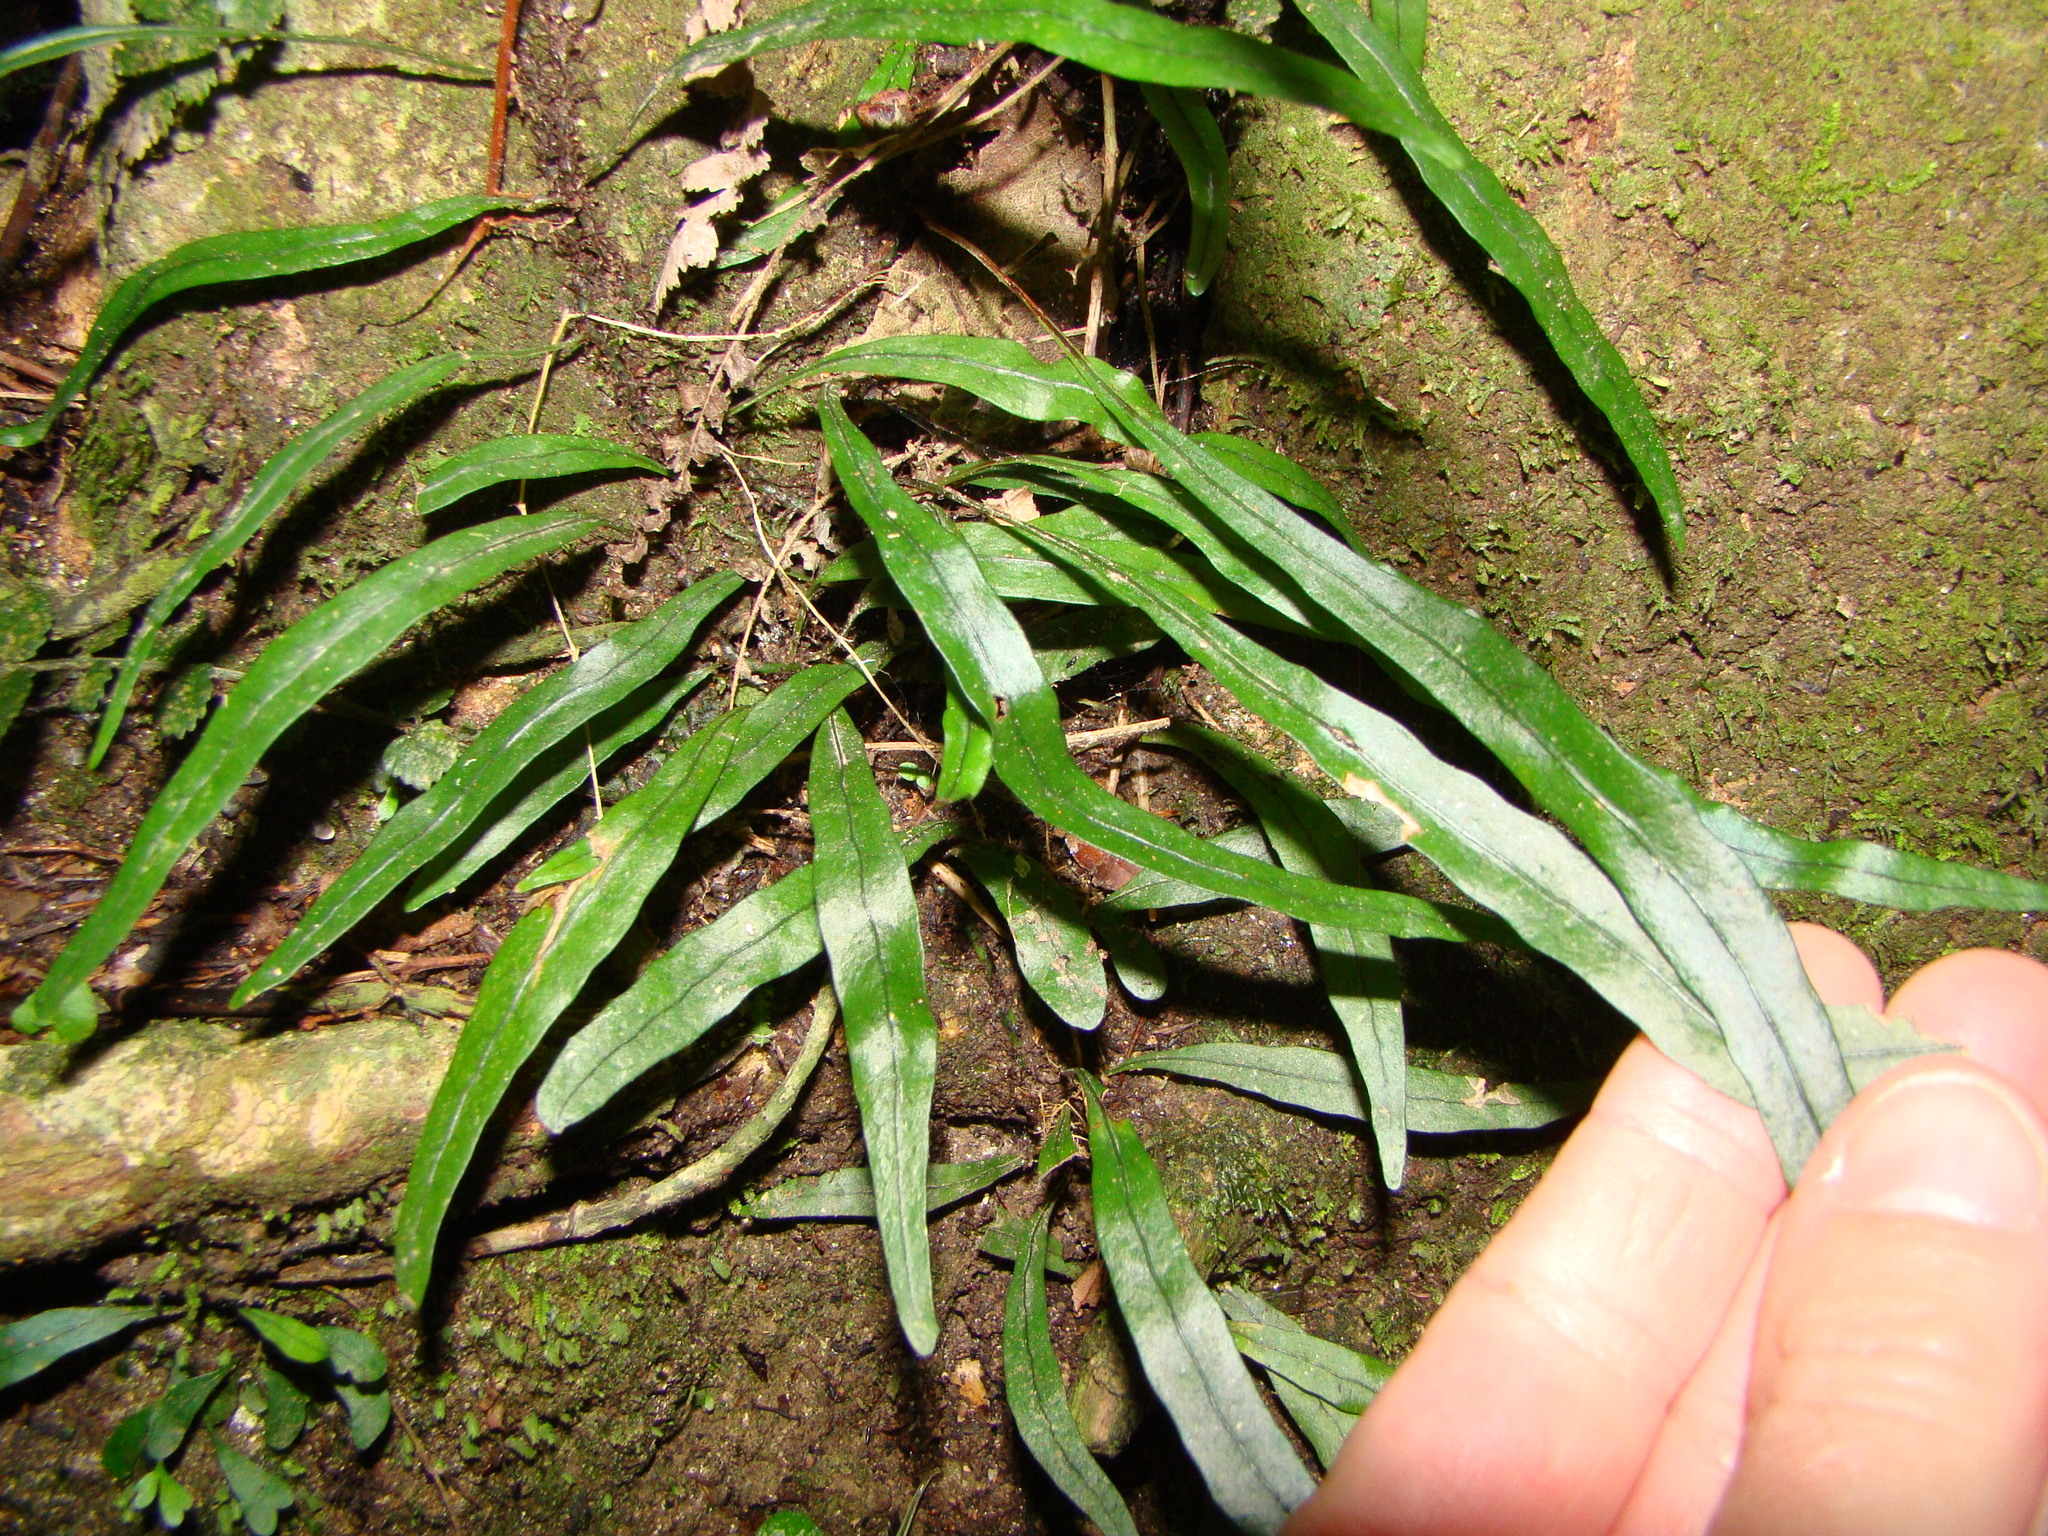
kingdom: Plantae
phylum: Tracheophyta
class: Polypodiopsida
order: Polypodiales
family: Polypodiaceae
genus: Lecanopteris
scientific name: Lecanopteris scandens
